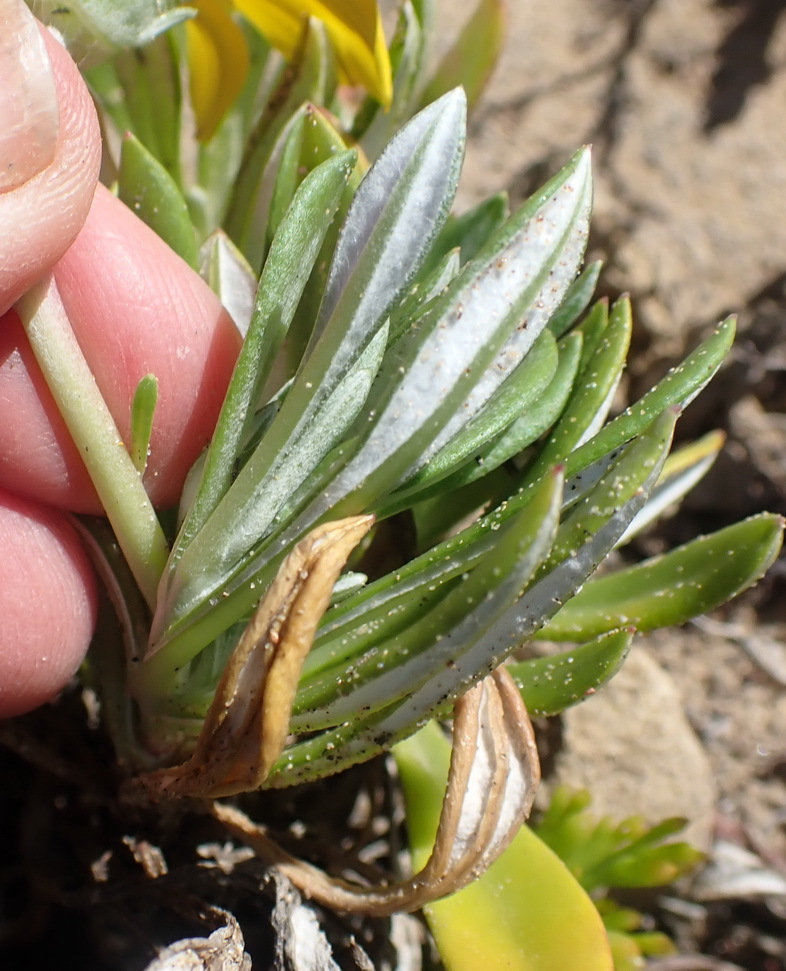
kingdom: Plantae
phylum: Tracheophyta
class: Magnoliopsida
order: Asterales
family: Asteraceae
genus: Gazania
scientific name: Gazania rigens
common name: Treasureflower
